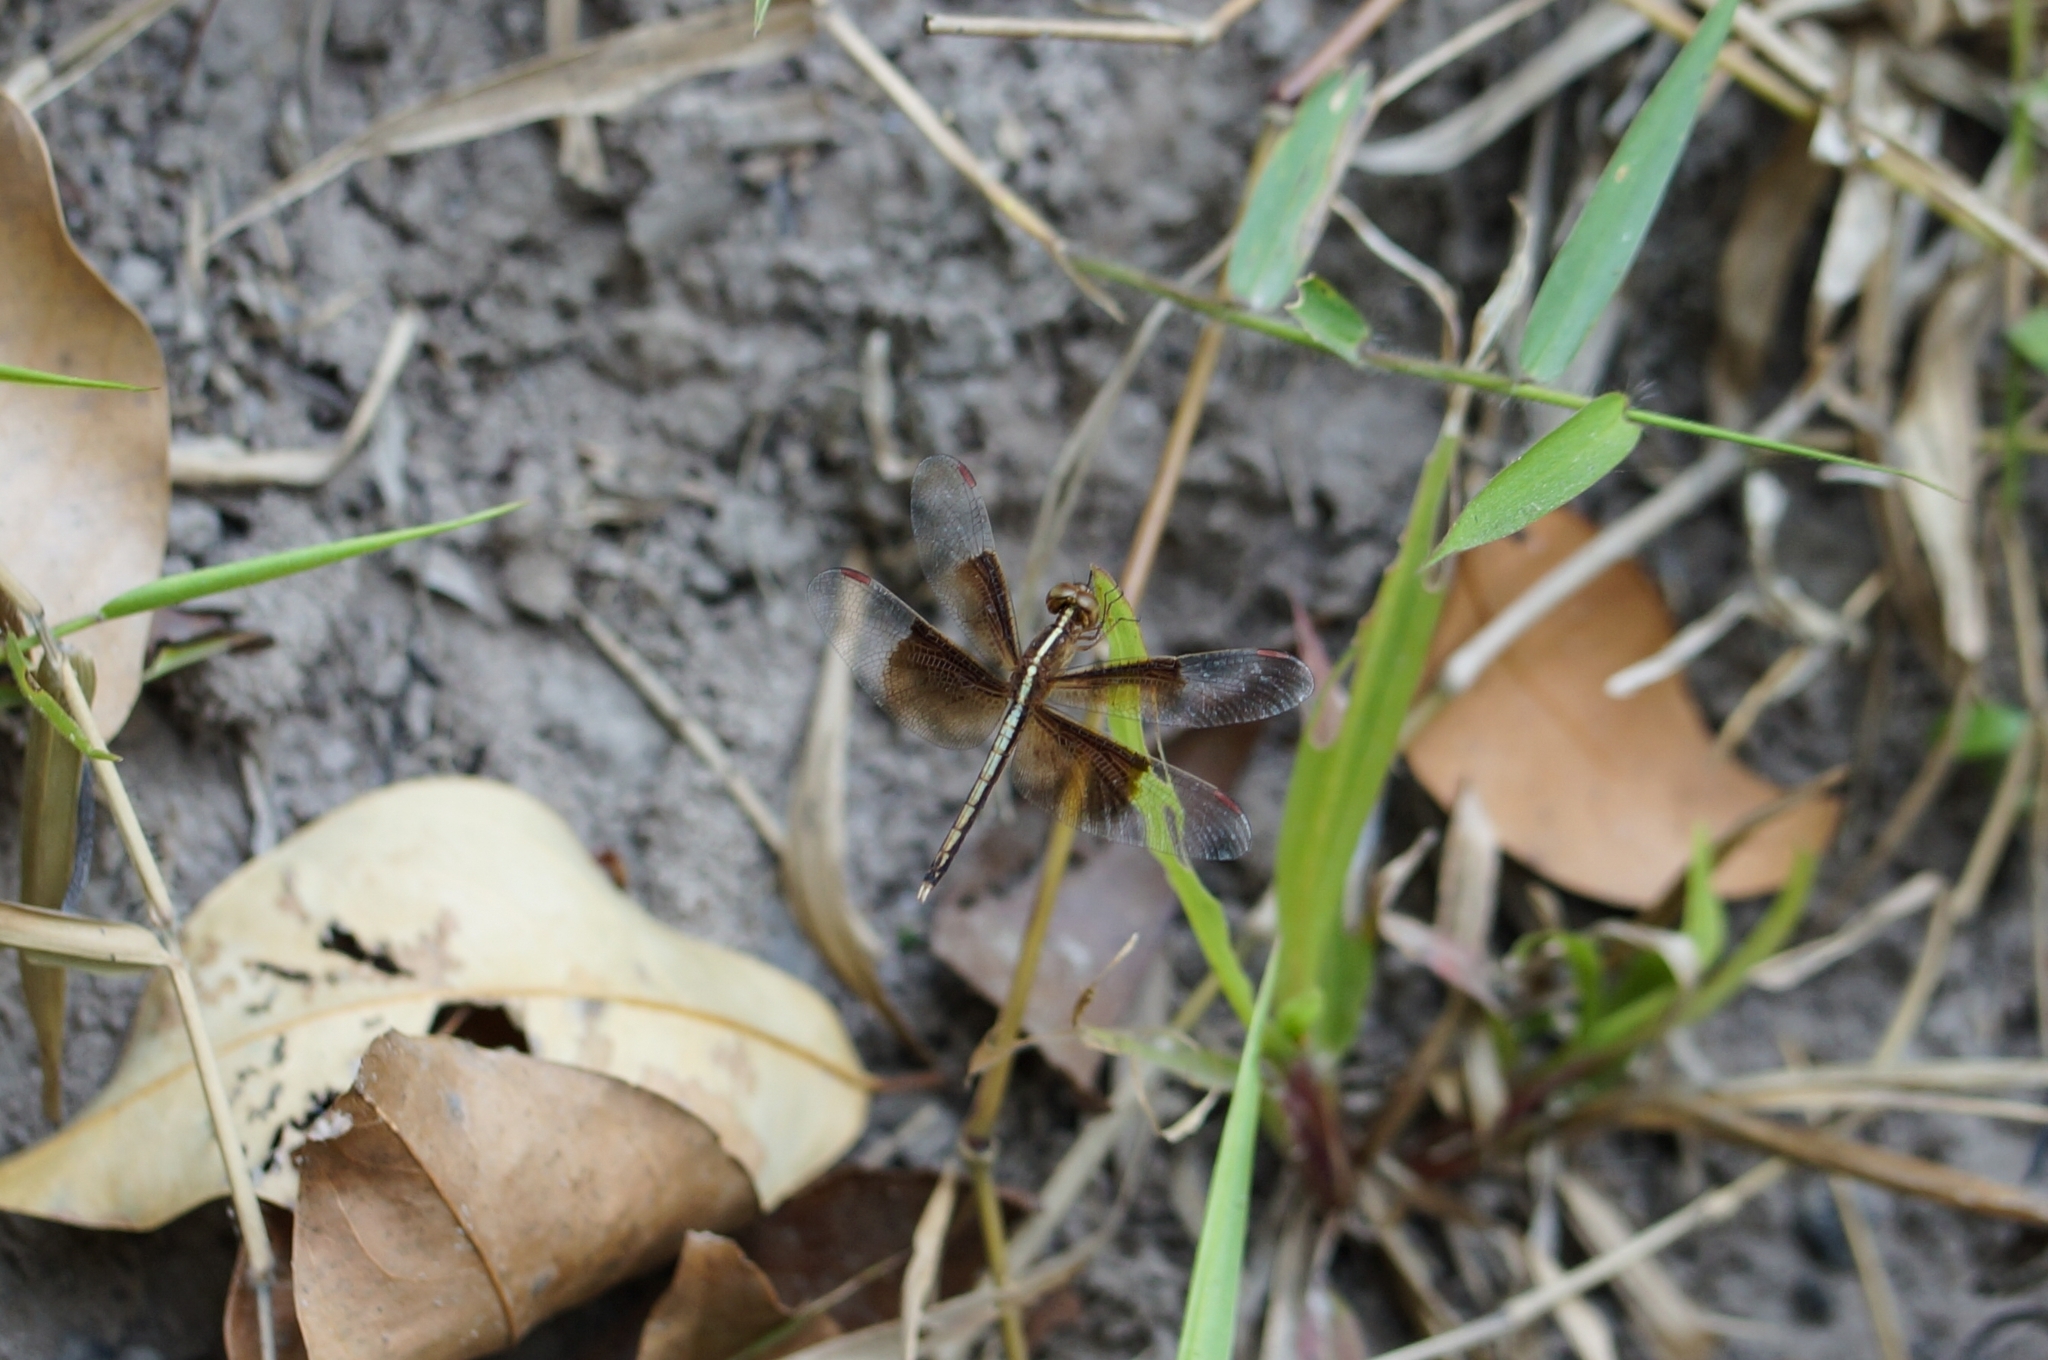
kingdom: Animalia
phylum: Arthropoda
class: Insecta
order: Odonata
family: Libellulidae
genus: Neurothemis
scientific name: Neurothemis tullia
